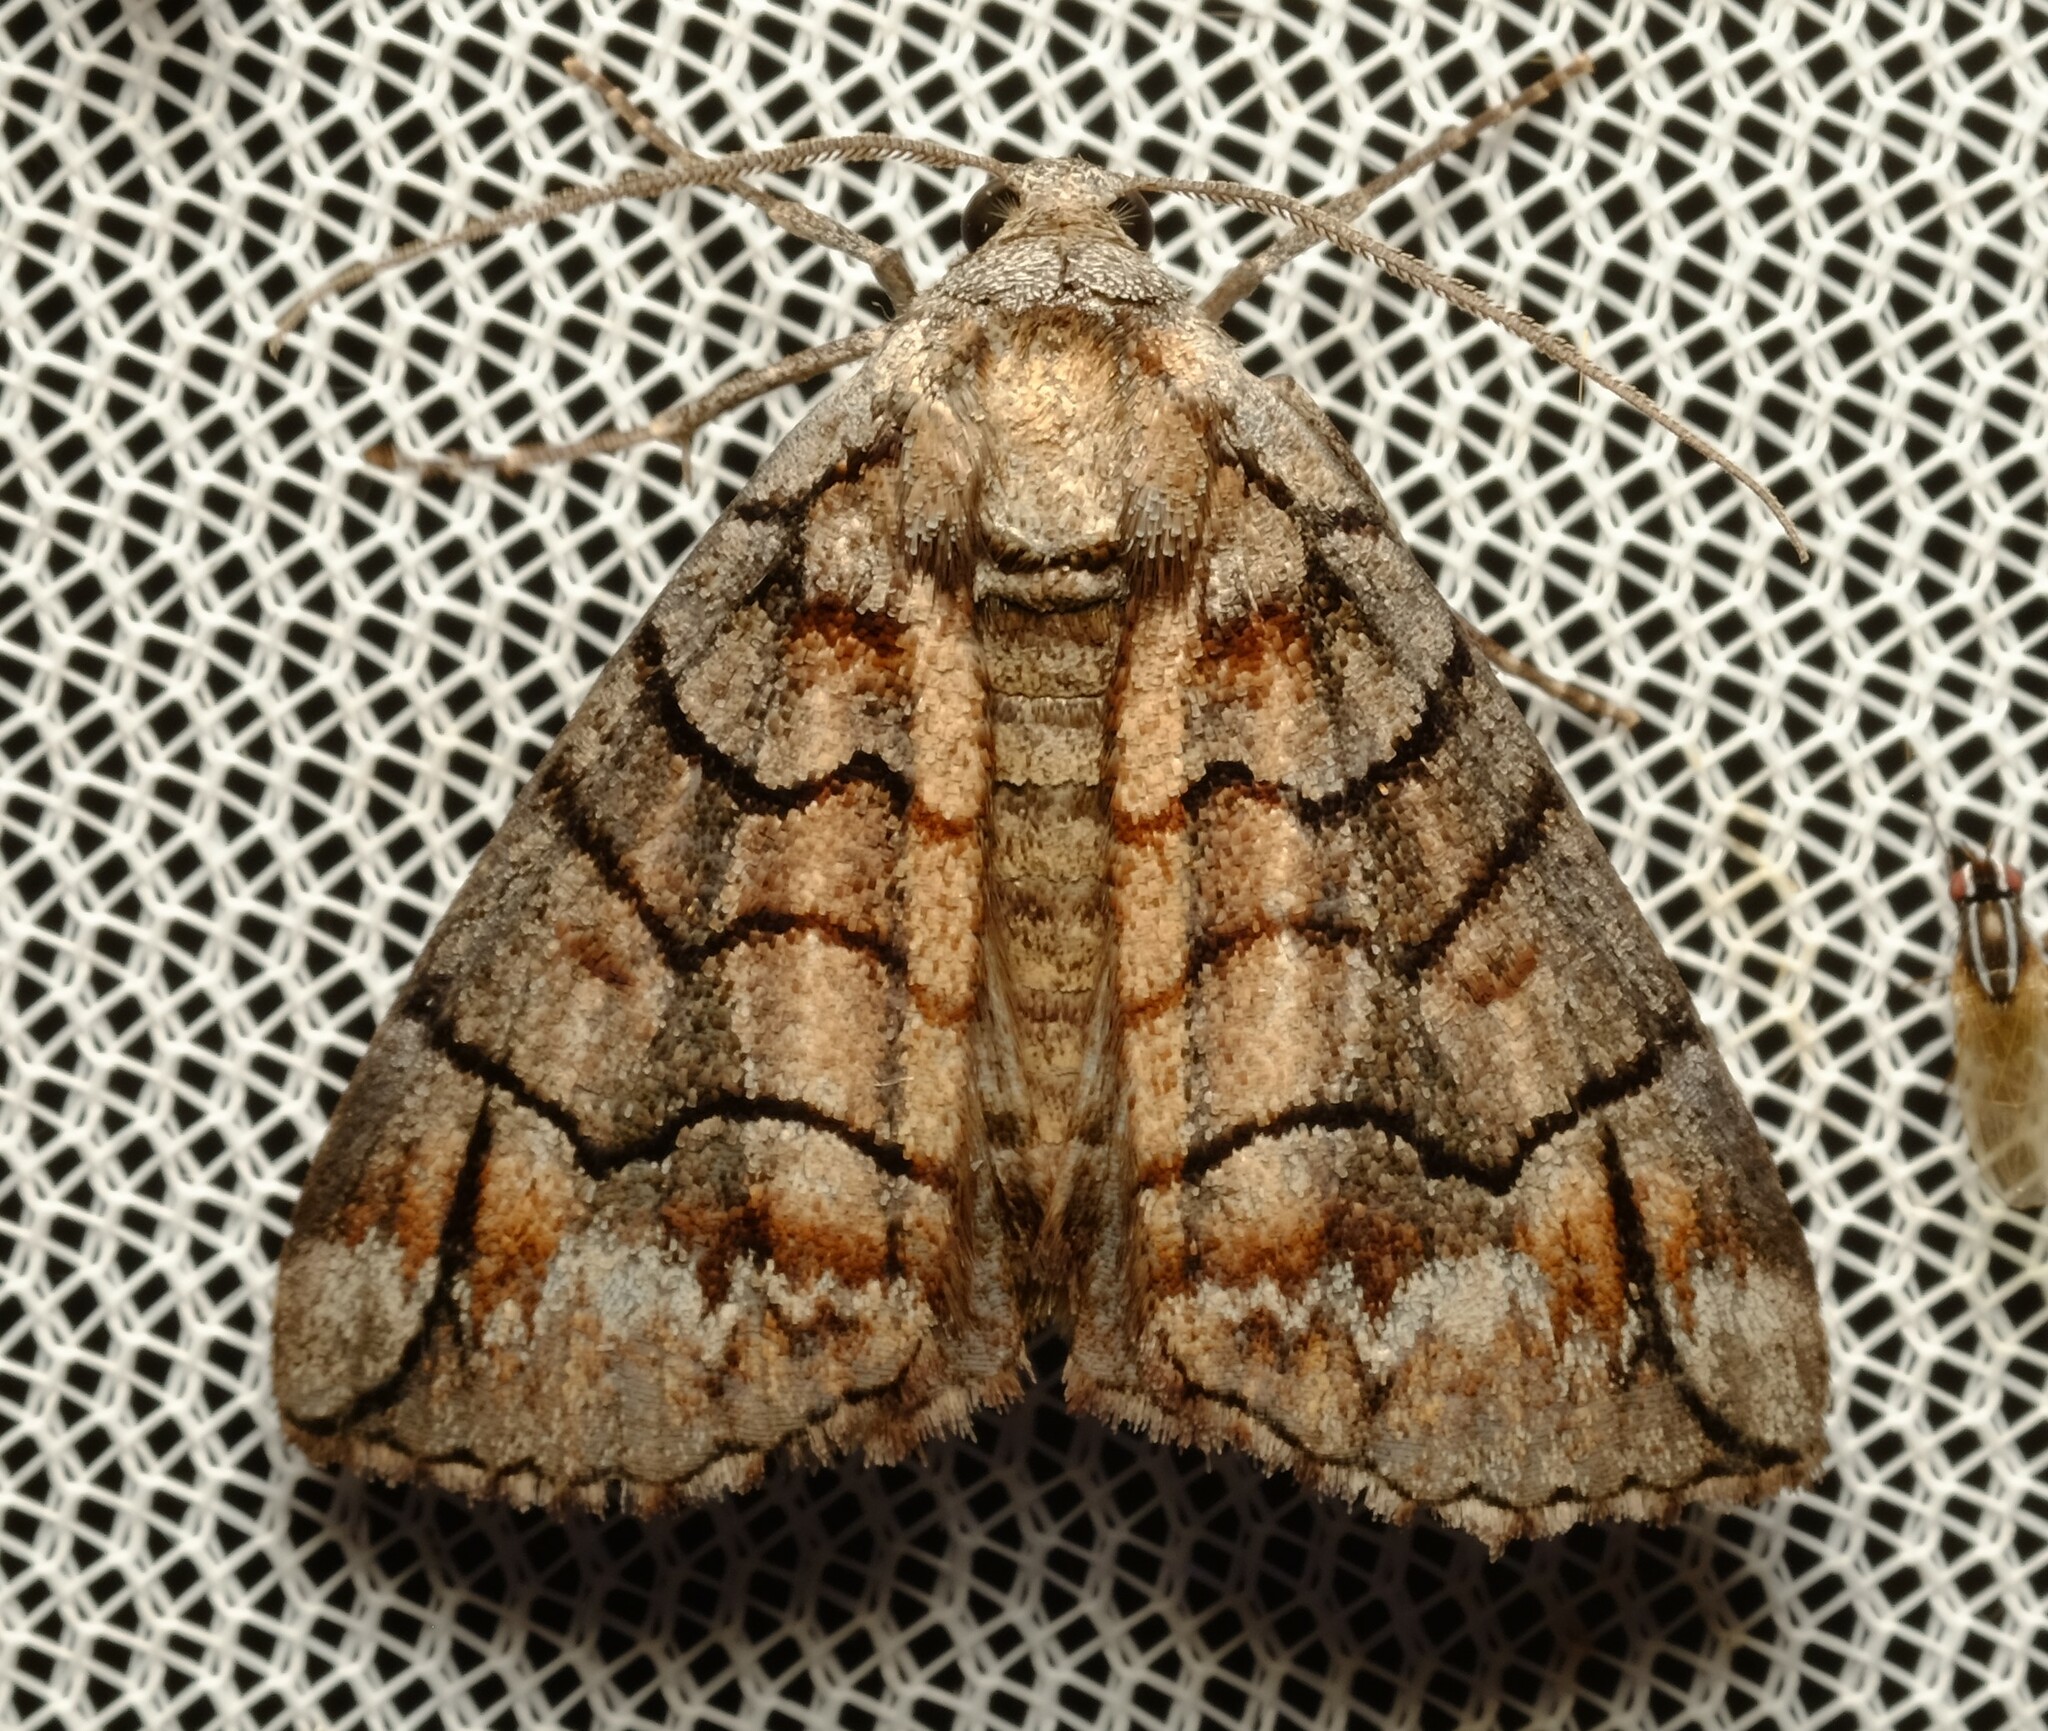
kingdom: Animalia
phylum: Arthropoda
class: Insecta
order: Lepidoptera
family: Geometridae
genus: Dysbatus
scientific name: Dysbatus stenodesma
